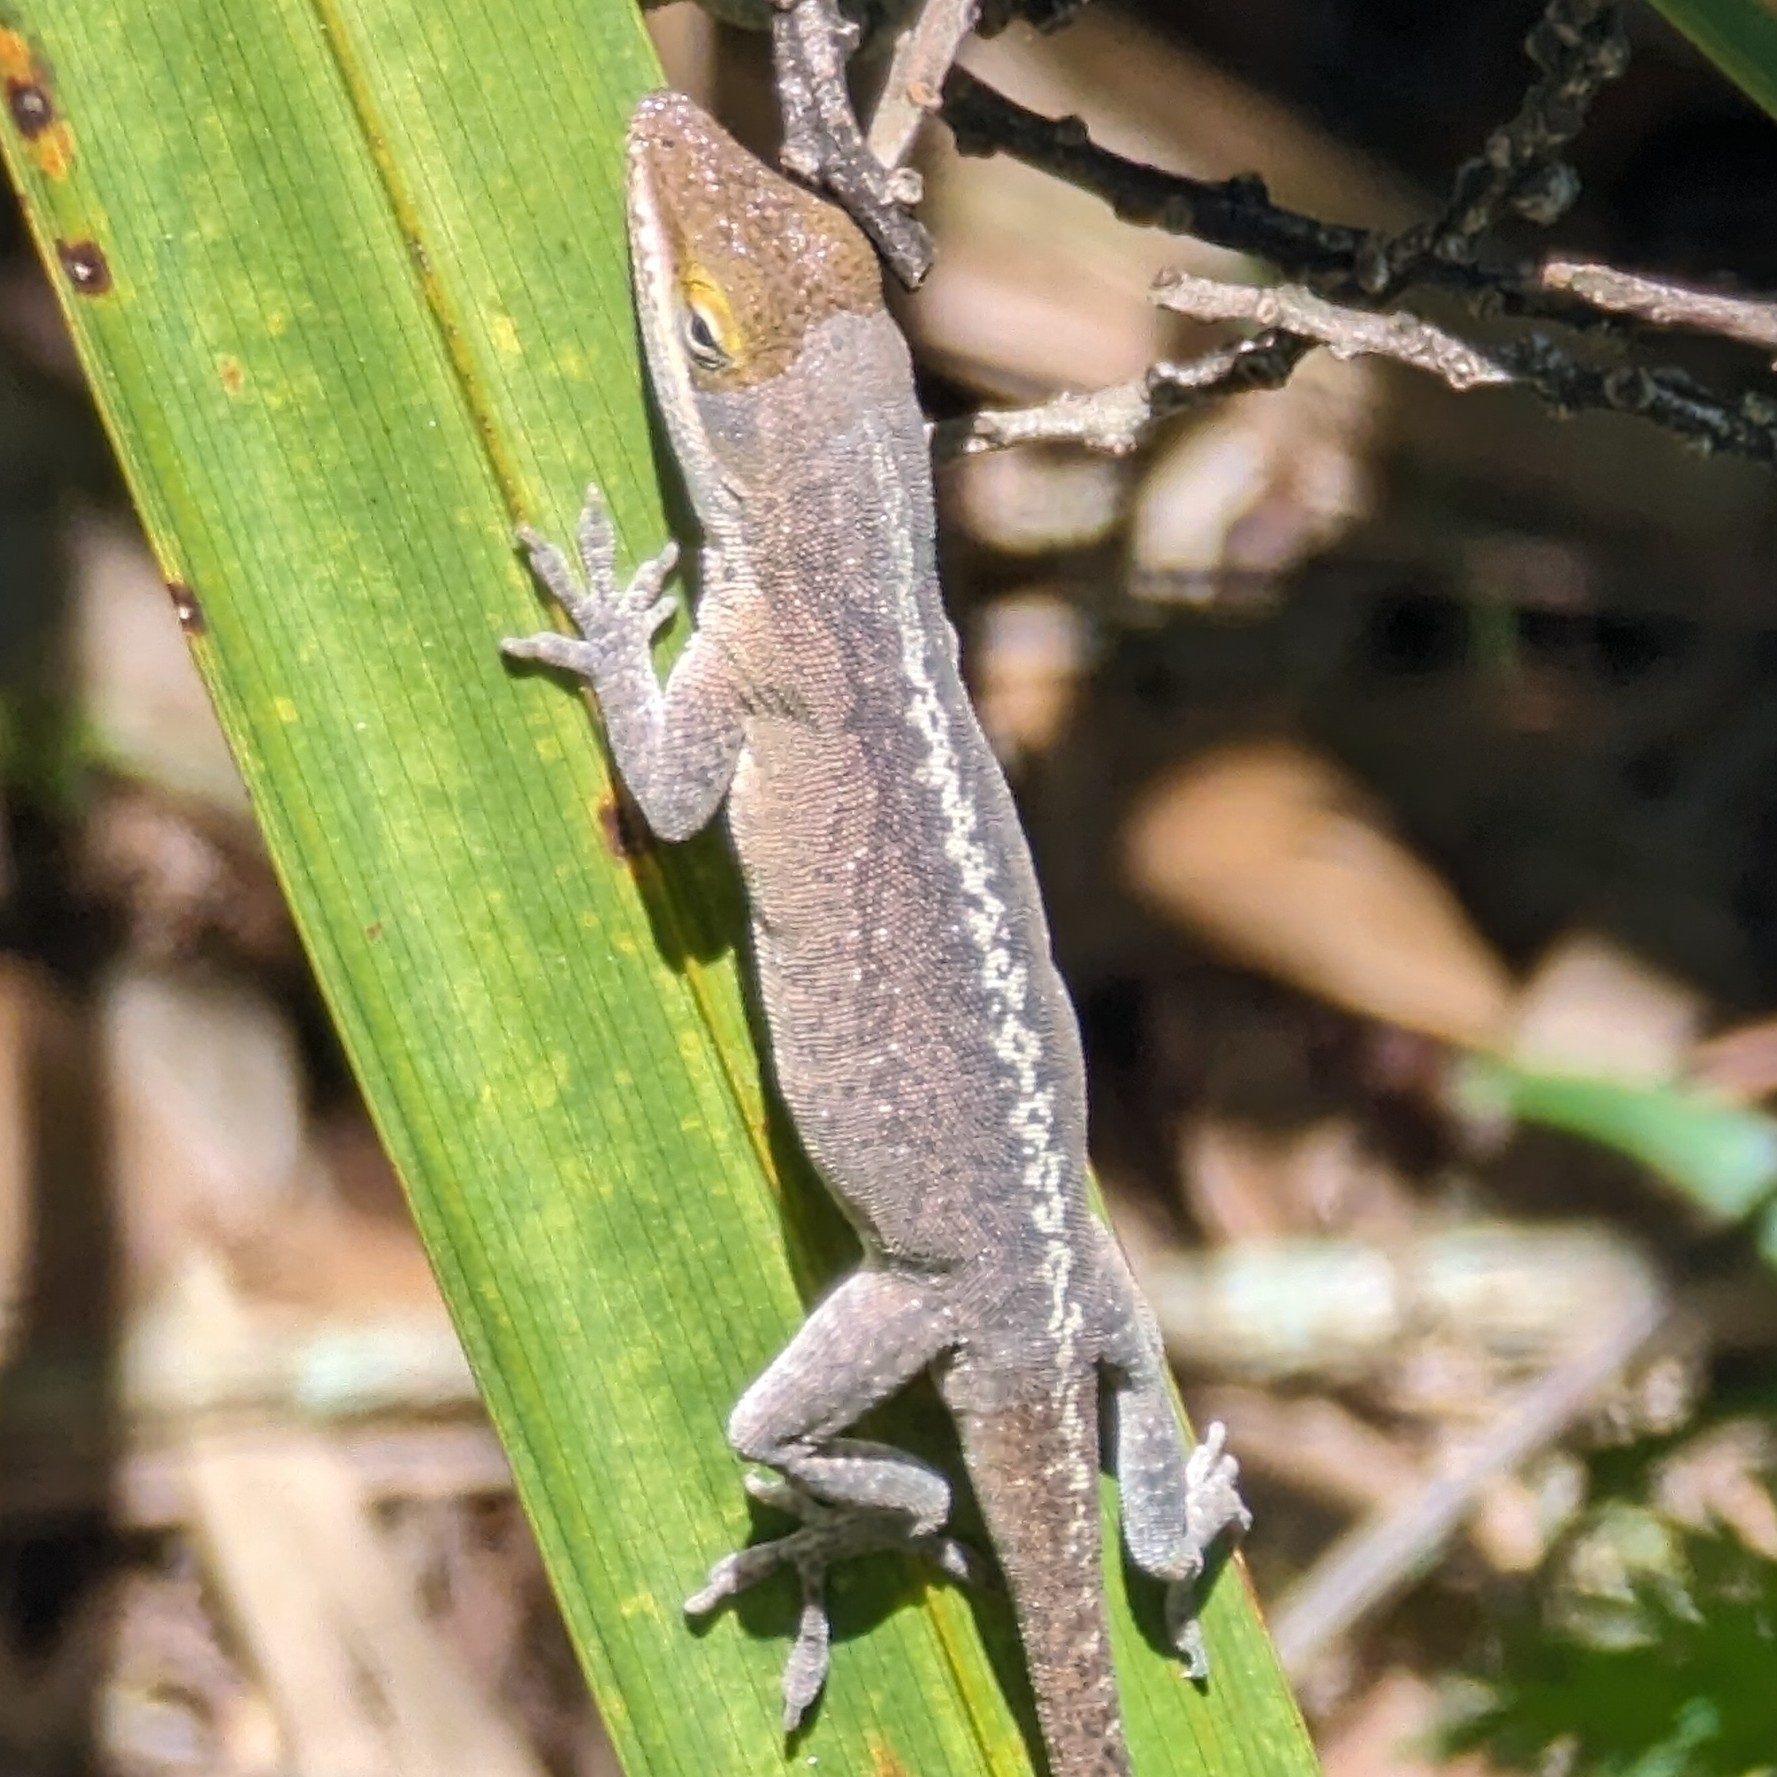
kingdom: Animalia
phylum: Chordata
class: Squamata
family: Dactyloidae
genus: Anolis
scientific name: Anolis carolinensis
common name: Green anole
